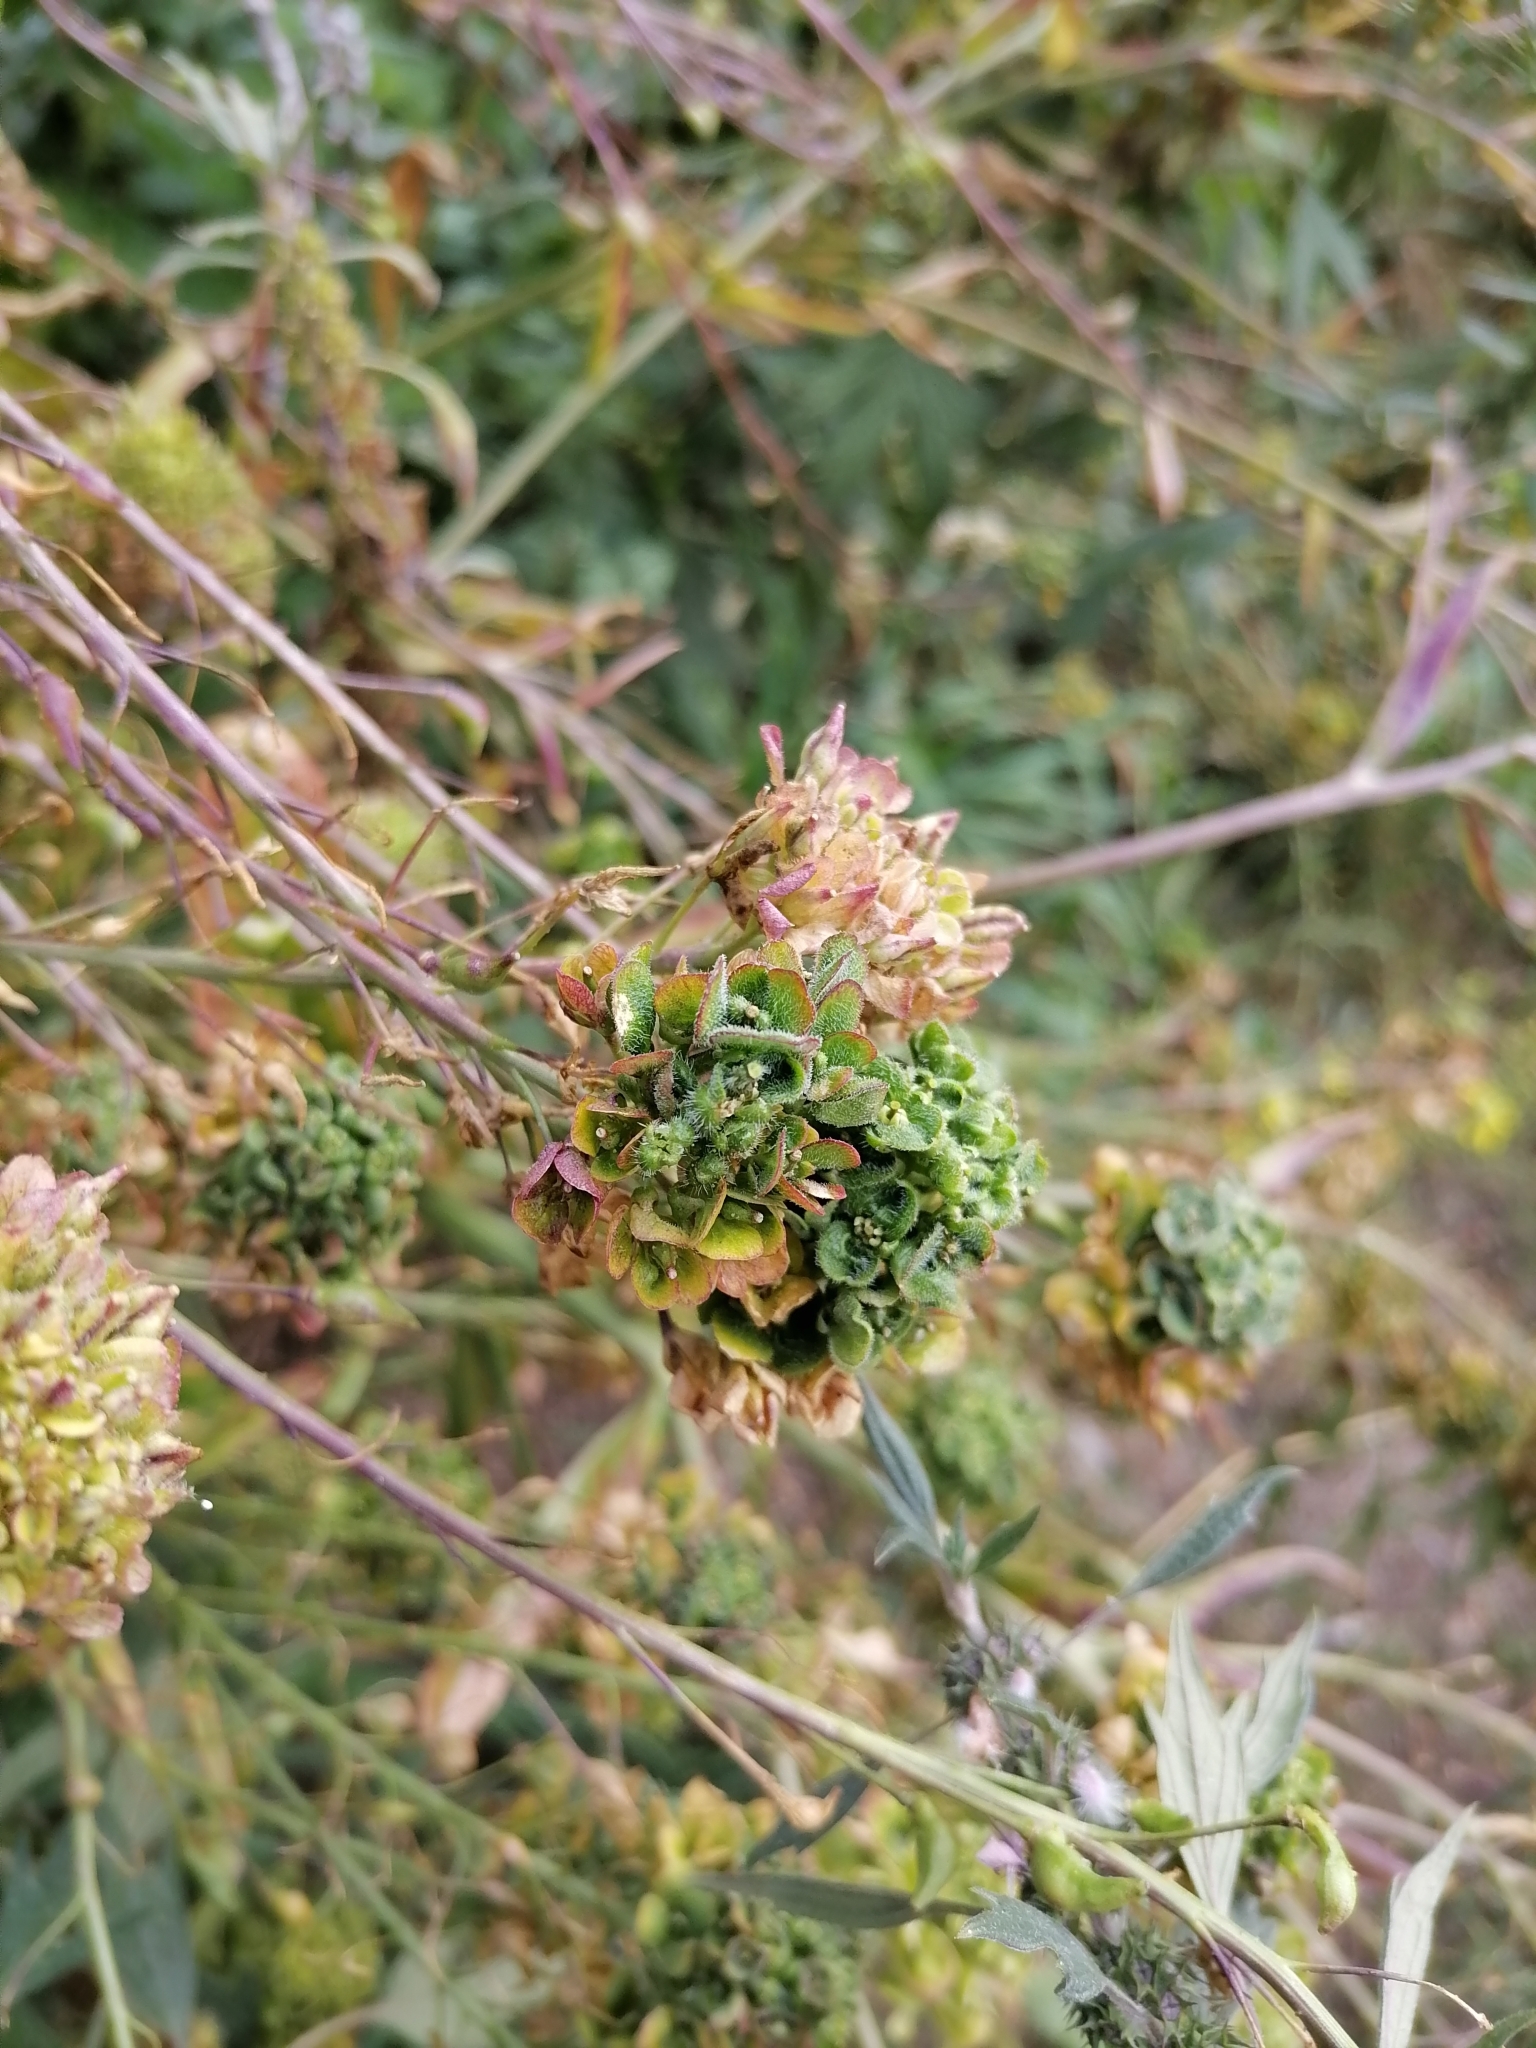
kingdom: Plantae
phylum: Tracheophyta
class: Magnoliopsida
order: Brassicales
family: Brassicaceae
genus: Bunias
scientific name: Bunias orientalis
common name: Warty-cabbage
